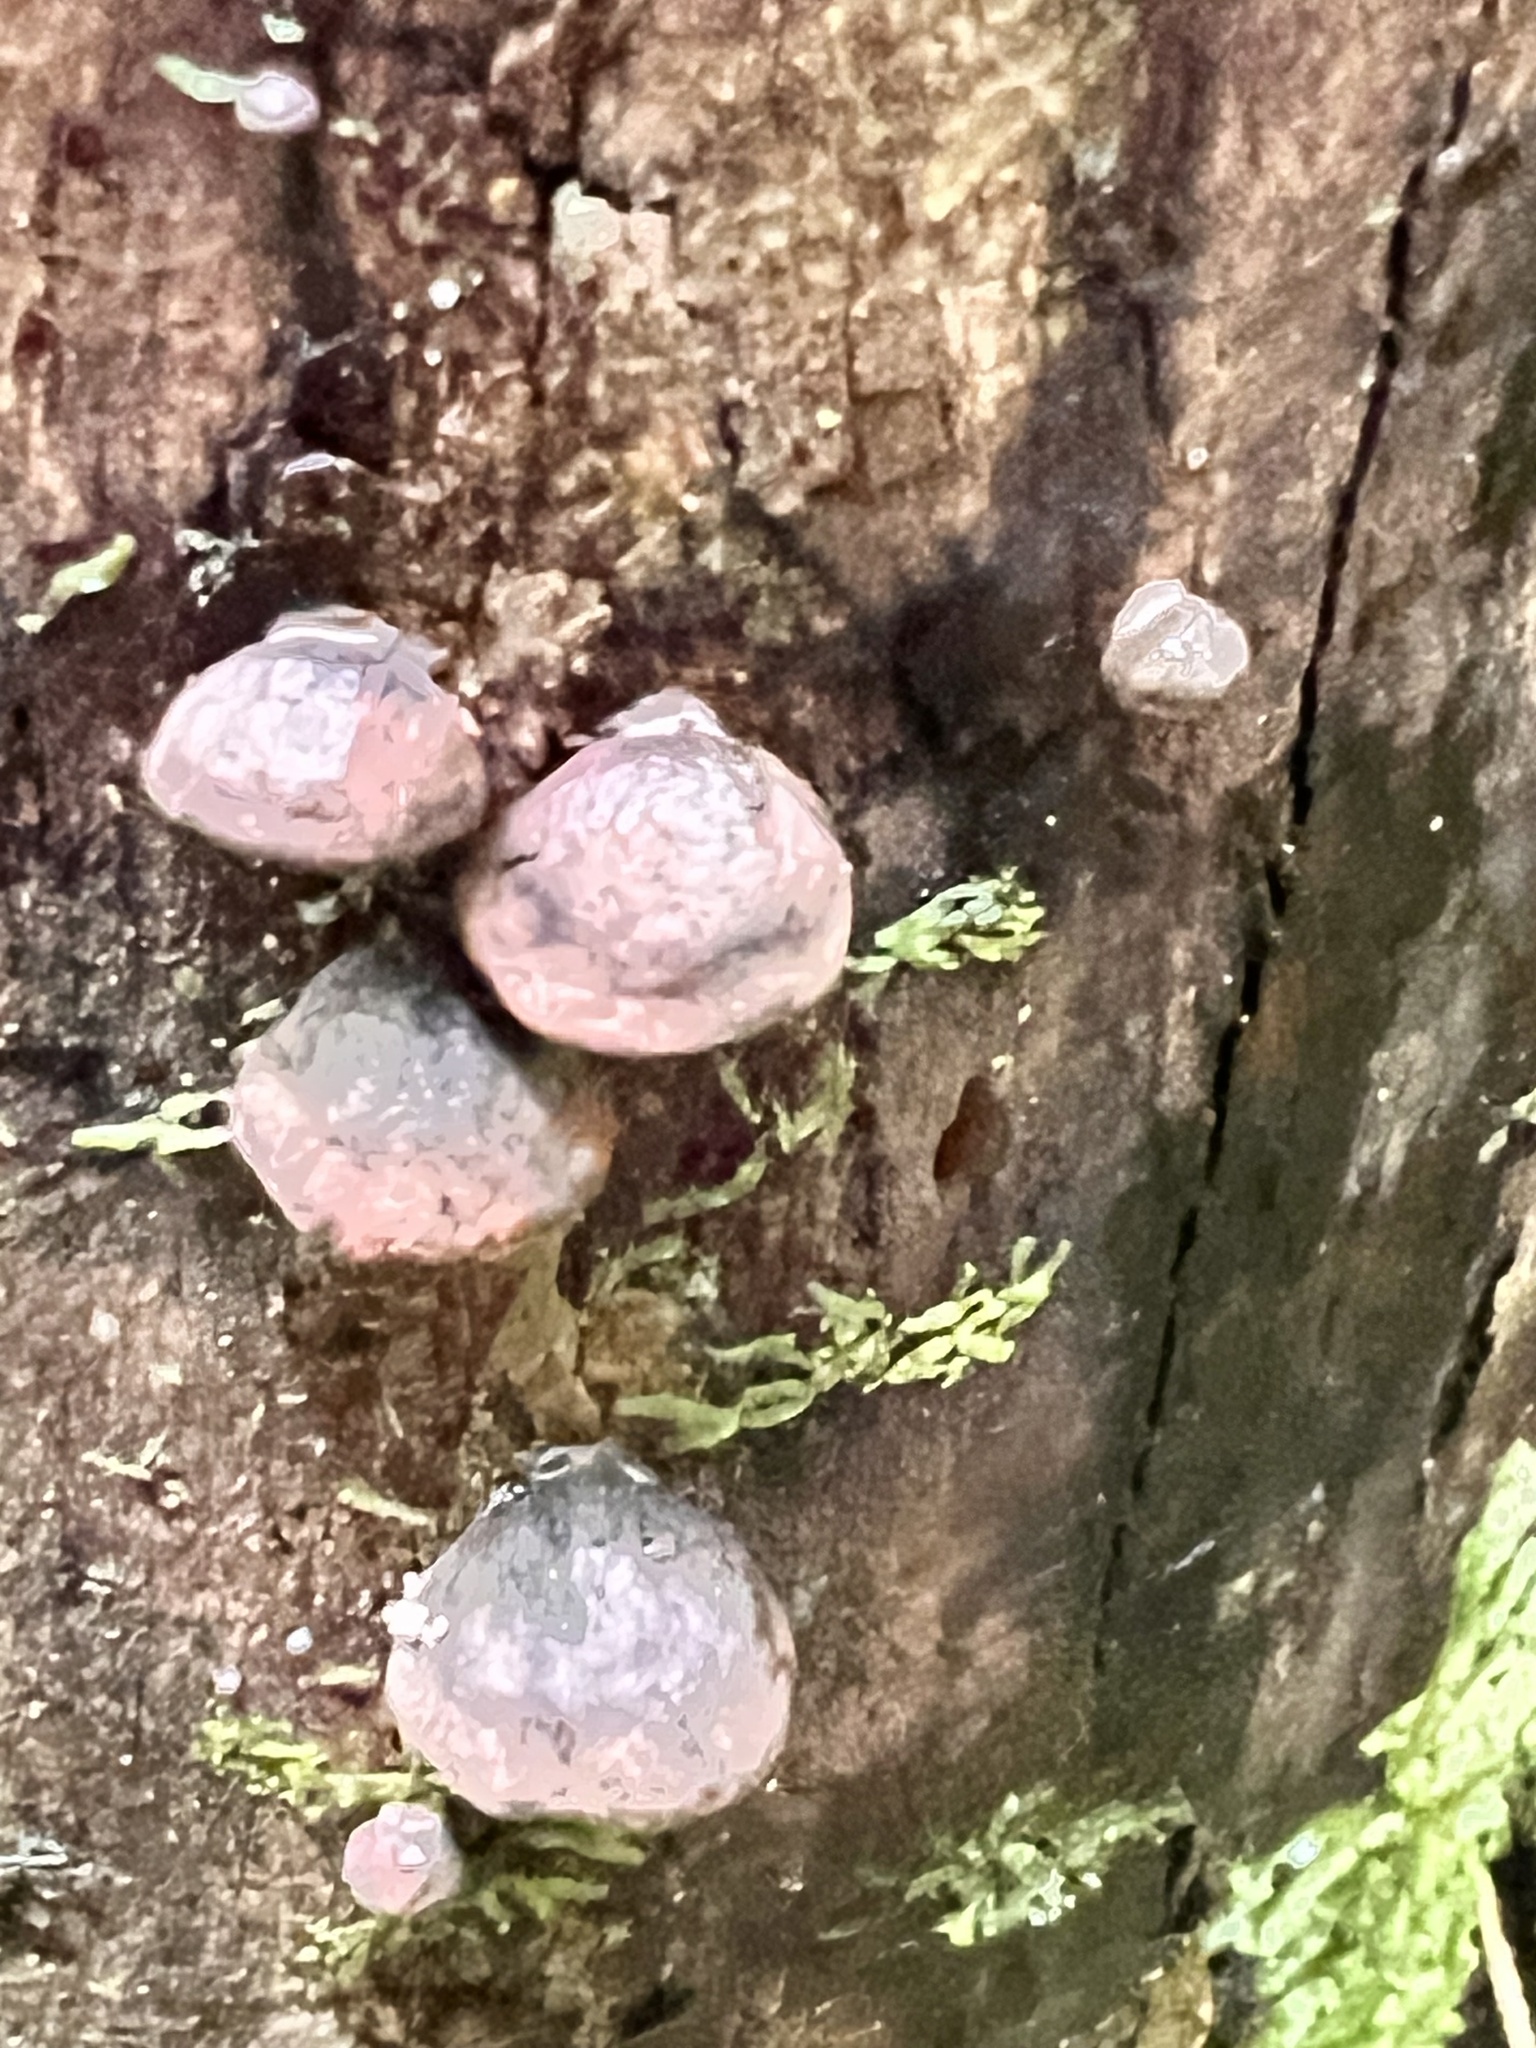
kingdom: Fungi
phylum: Basidiomycota
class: Agaricomycetes
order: Agaricales
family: Omphalotaceae
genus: Anthracophyllum
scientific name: Anthracophyllum archeri
